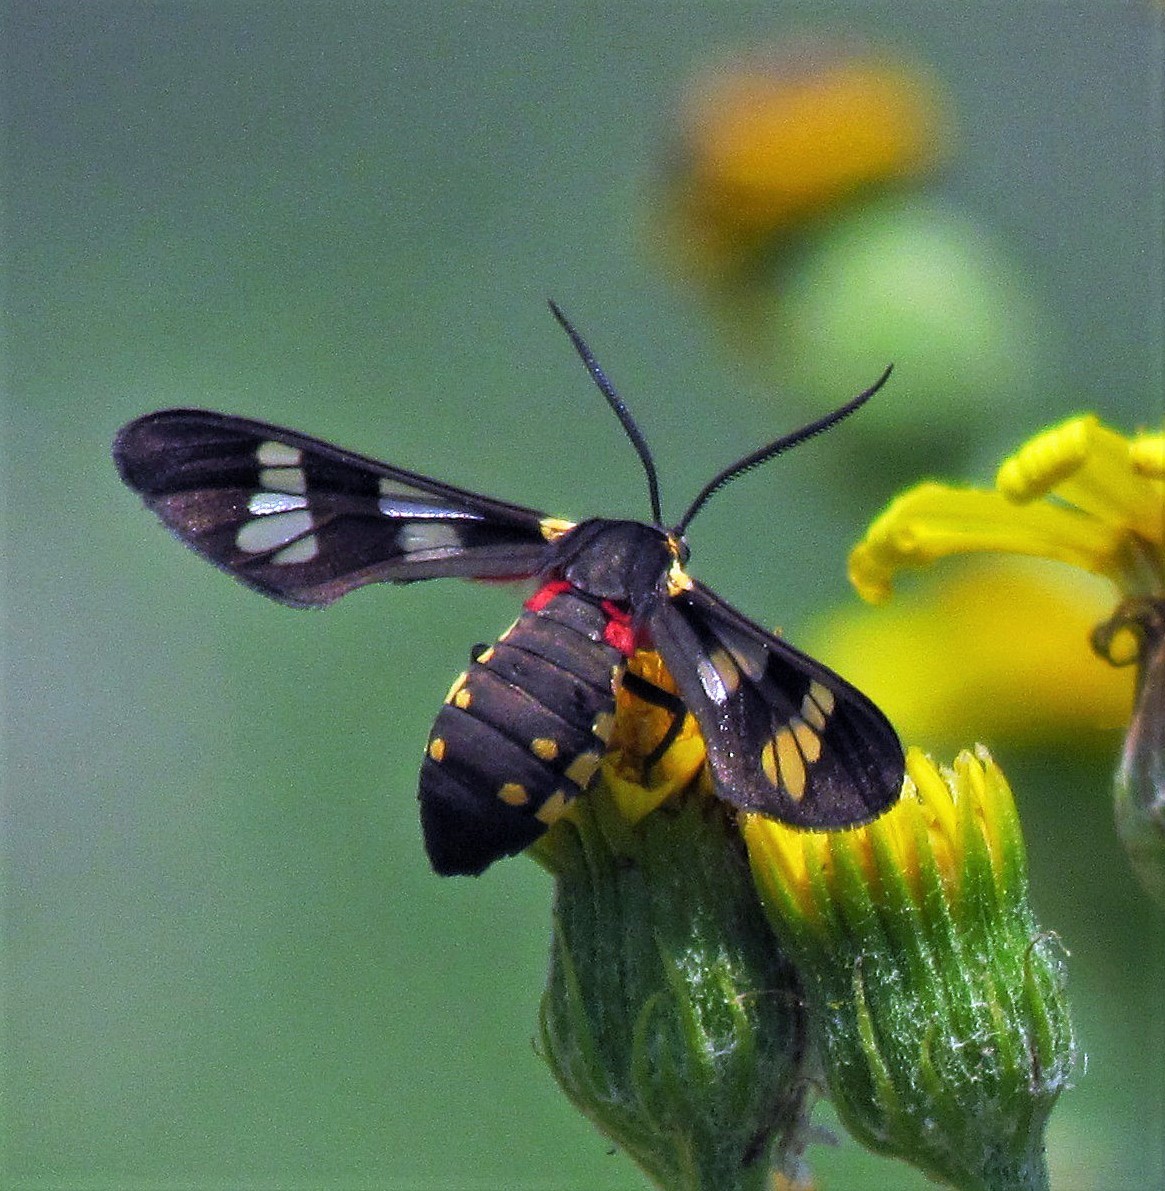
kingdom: Animalia
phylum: Arthropoda
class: Insecta
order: Lepidoptera
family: Erebidae
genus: Eurata
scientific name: Eurata hermione
